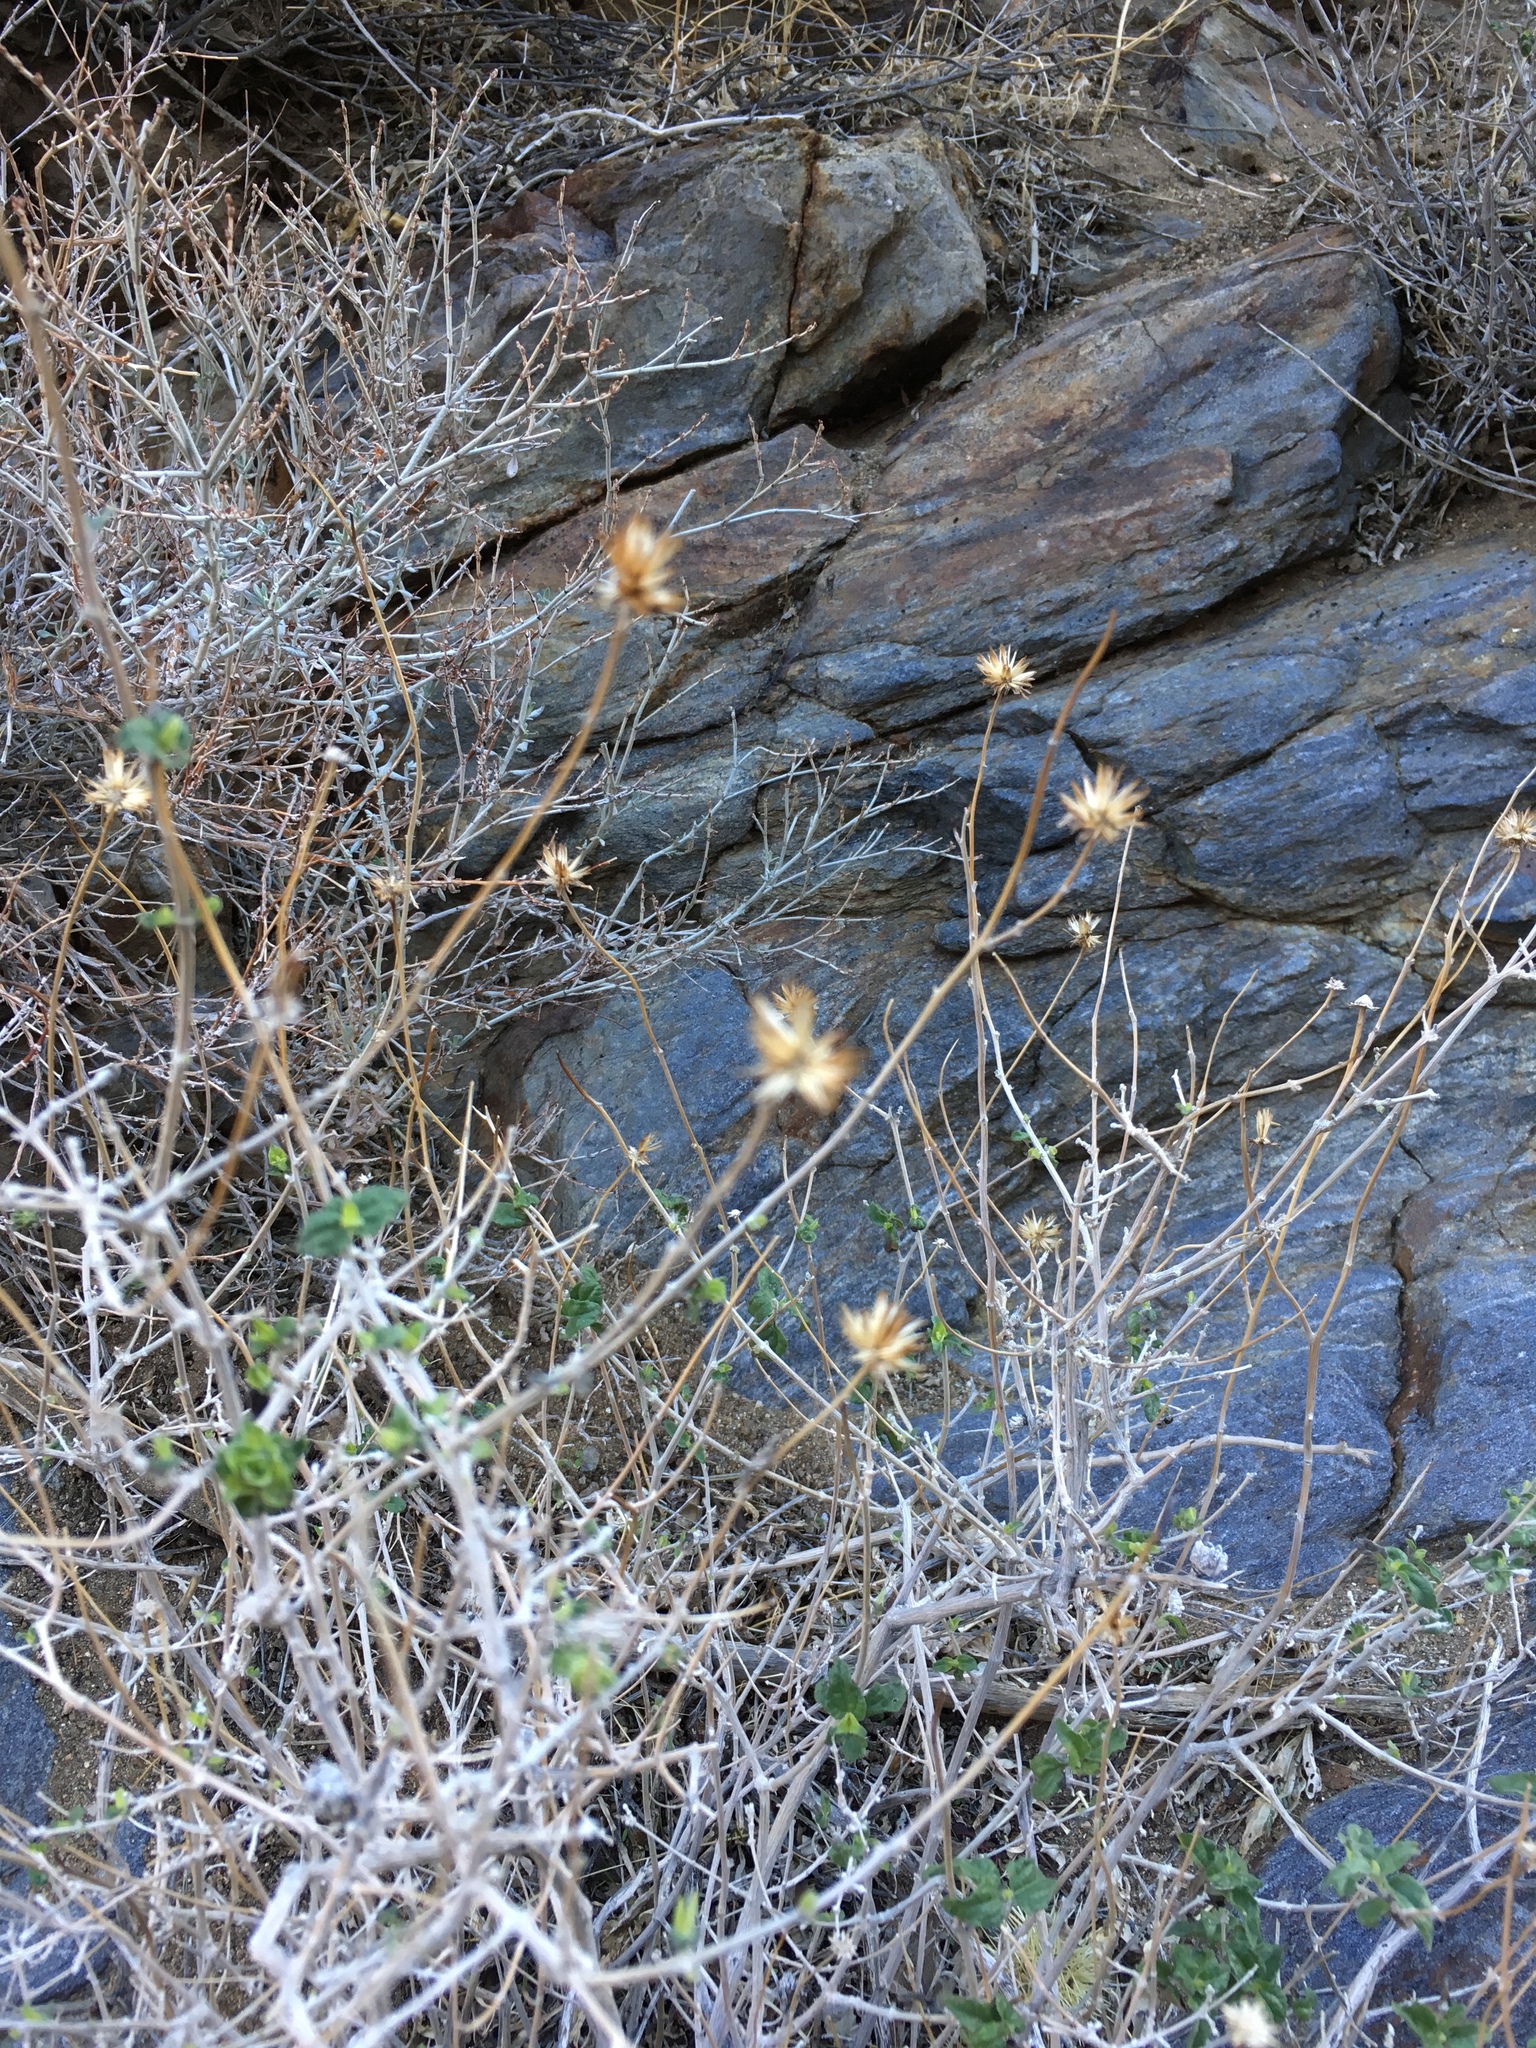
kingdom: Plantae
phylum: Tracheophyta
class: Magnoliopsida
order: Asterales
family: Asteraceae
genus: Bahiopsis
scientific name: Bahiopsis parishii
